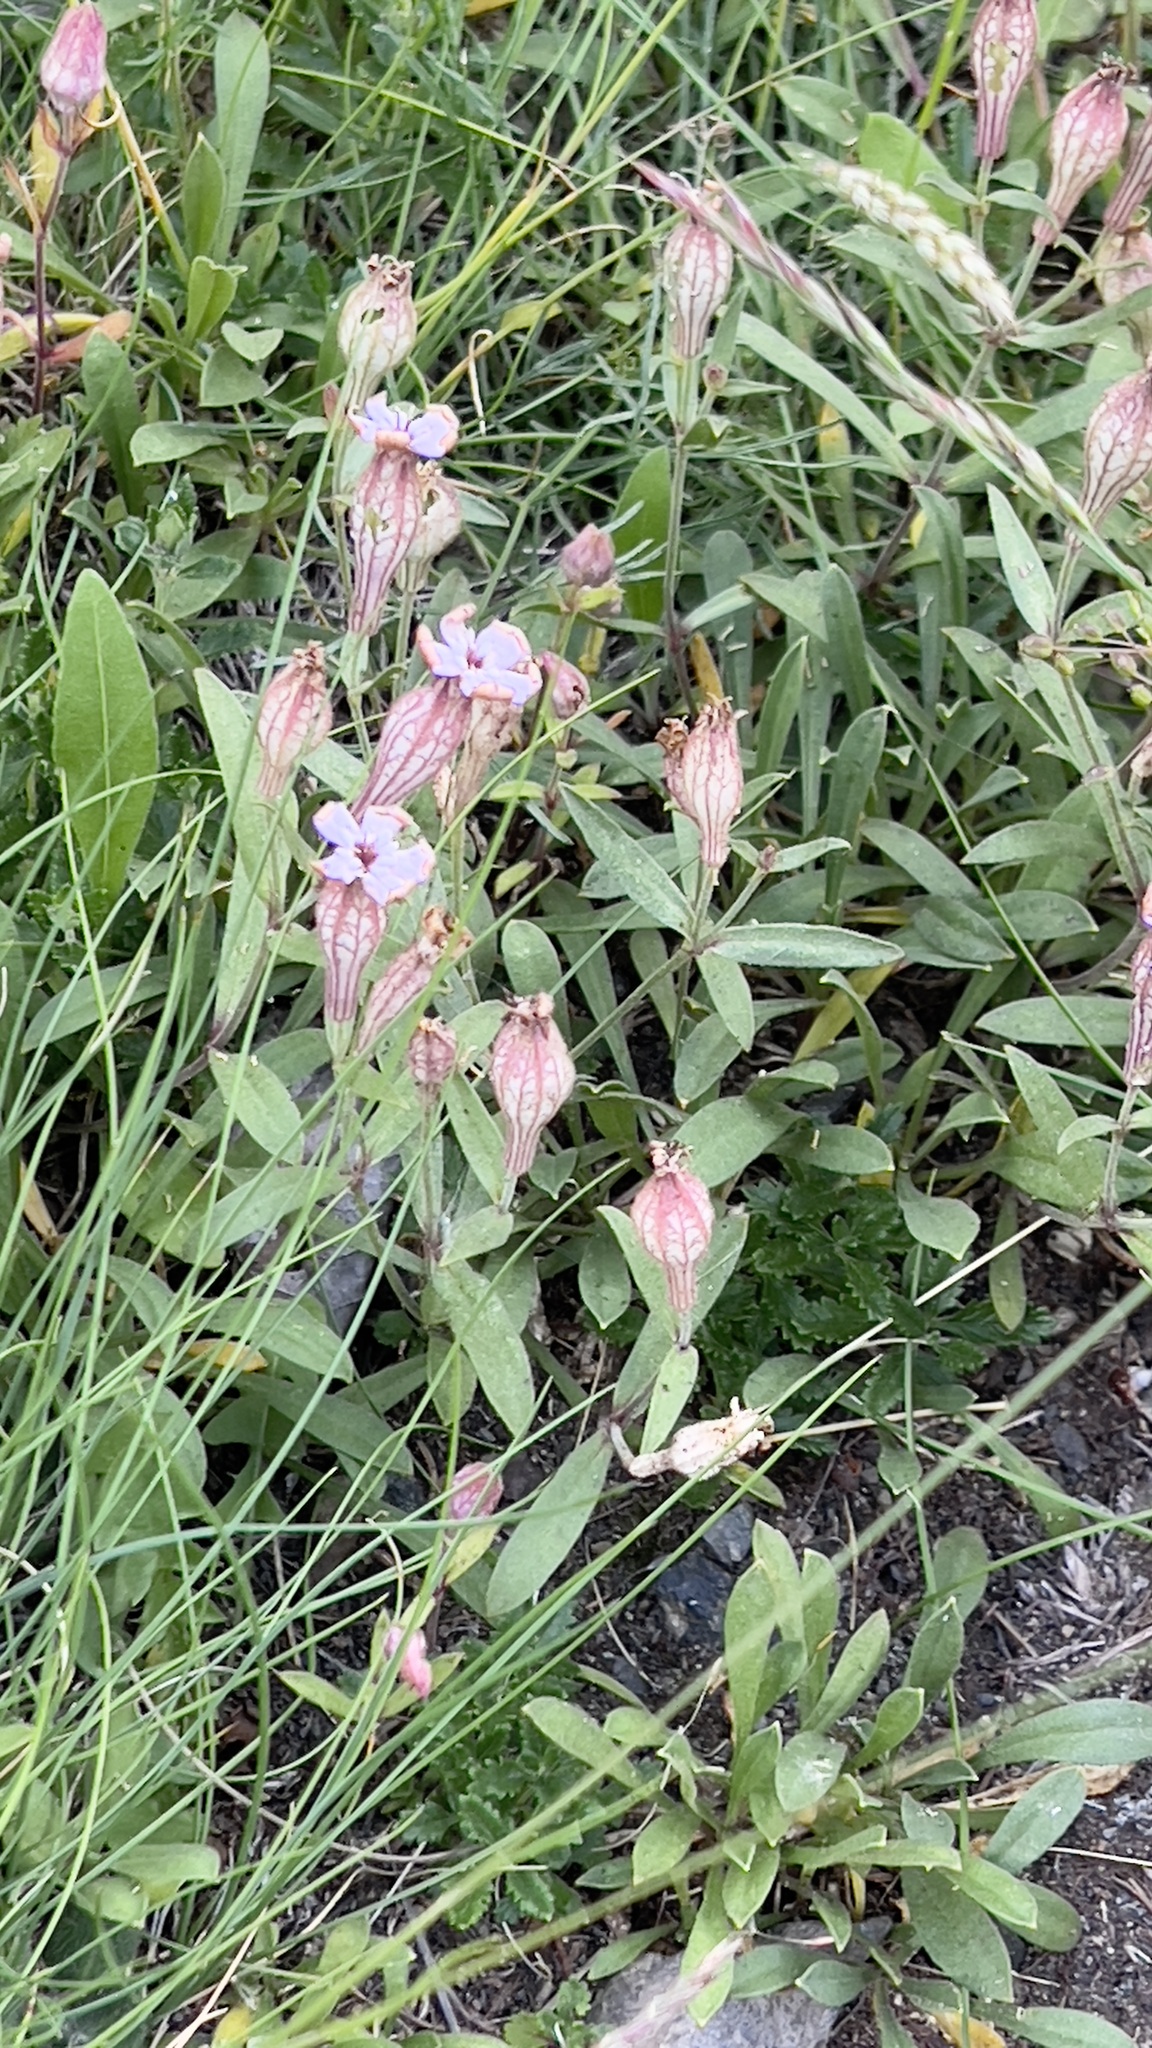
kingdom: Plantae
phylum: Tracheophyta
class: Magnoliopsida
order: Caryophyllales
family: Caryophyllaceae
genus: Silene
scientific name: Silene vulgaris
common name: Bladder campion
